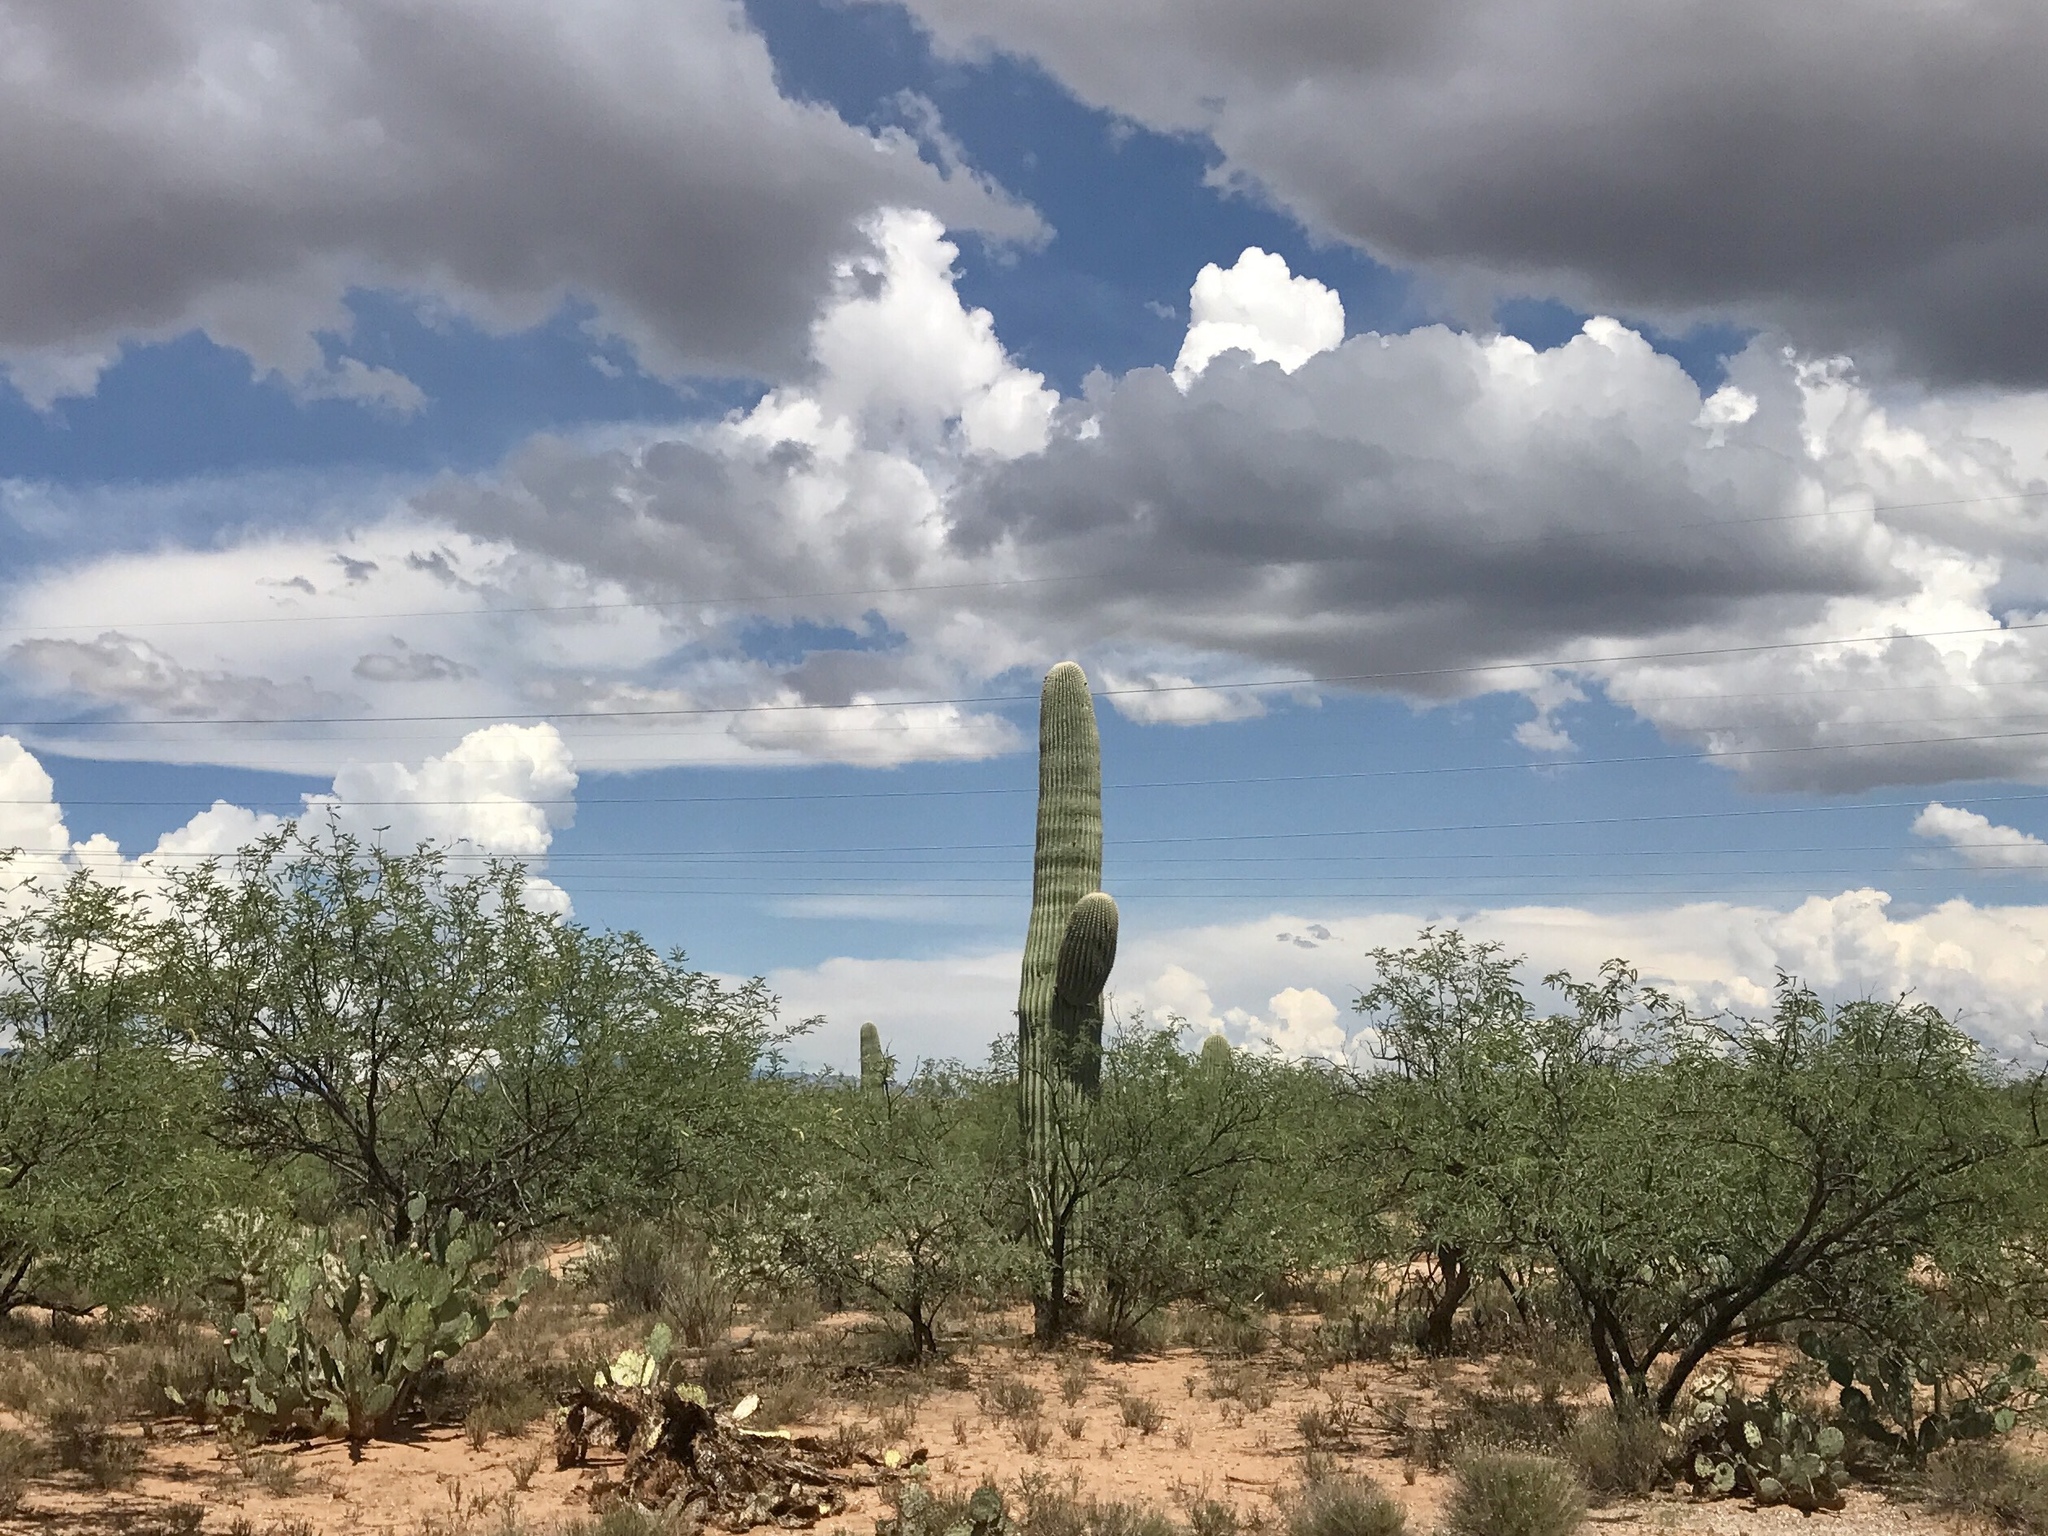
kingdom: Plantae
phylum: Tracheophyta
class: Magnoliopsida
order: Caryophyllales
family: Cactaceae
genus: Carnegiea
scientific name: Carnegiea gigantea
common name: Saguaro
